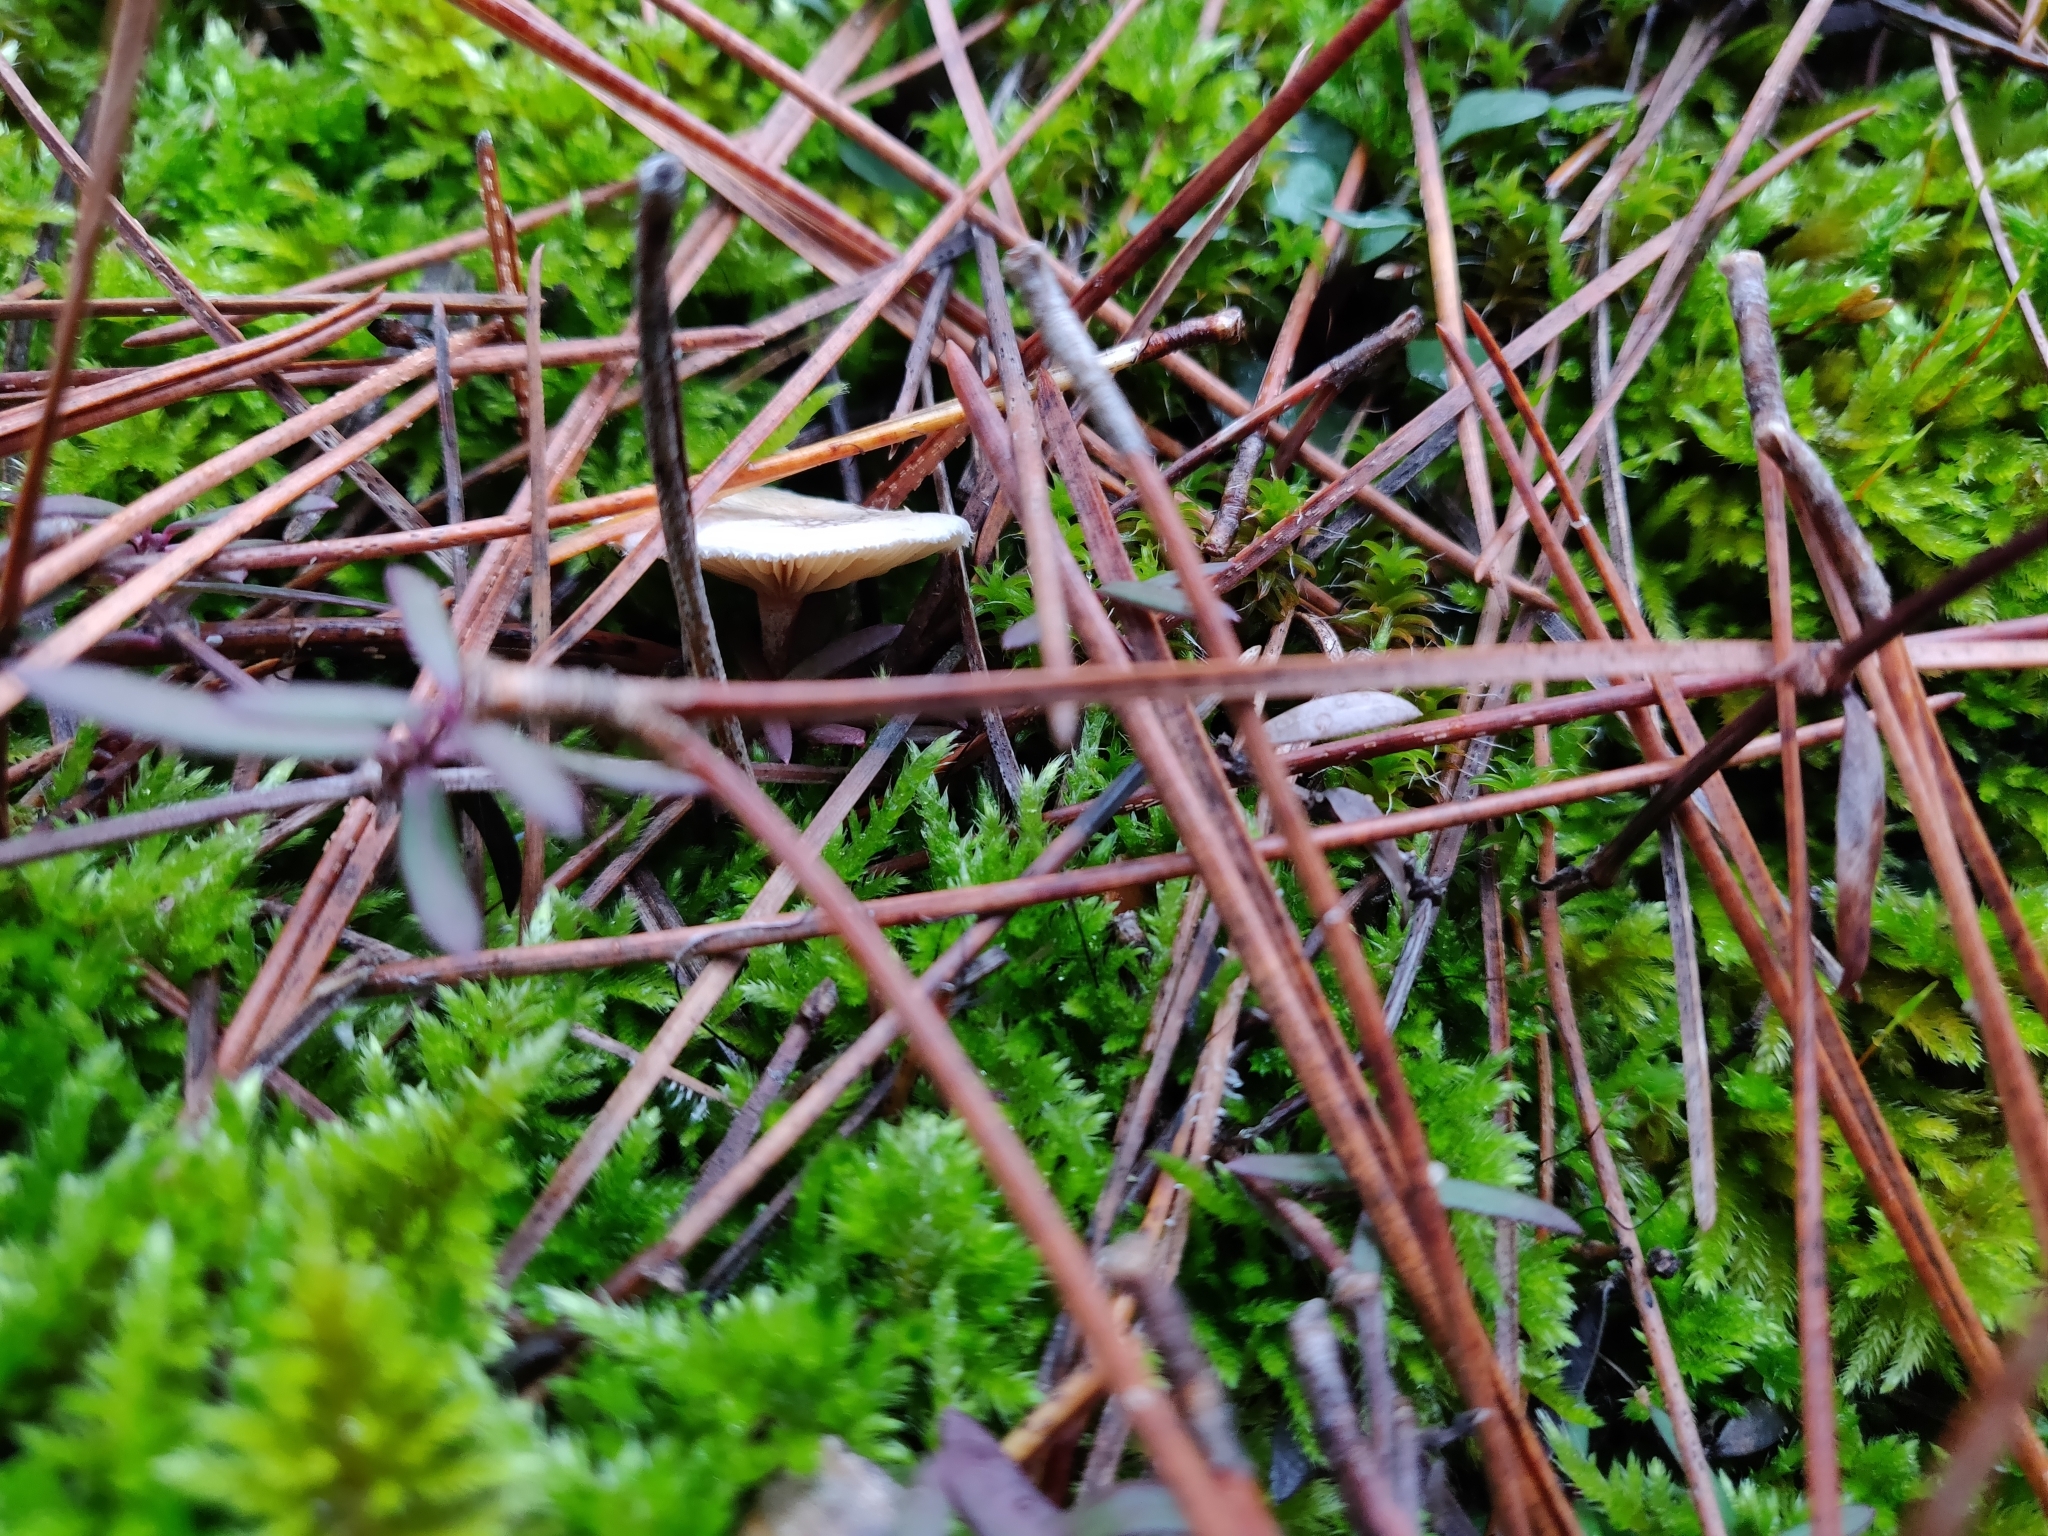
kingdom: Fungi
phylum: Basidiomycota
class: Agaricomycetes
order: Agaricales
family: Tricholomataceae
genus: Ripartites
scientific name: Ripartites tricholoma
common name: Bearded seamine
